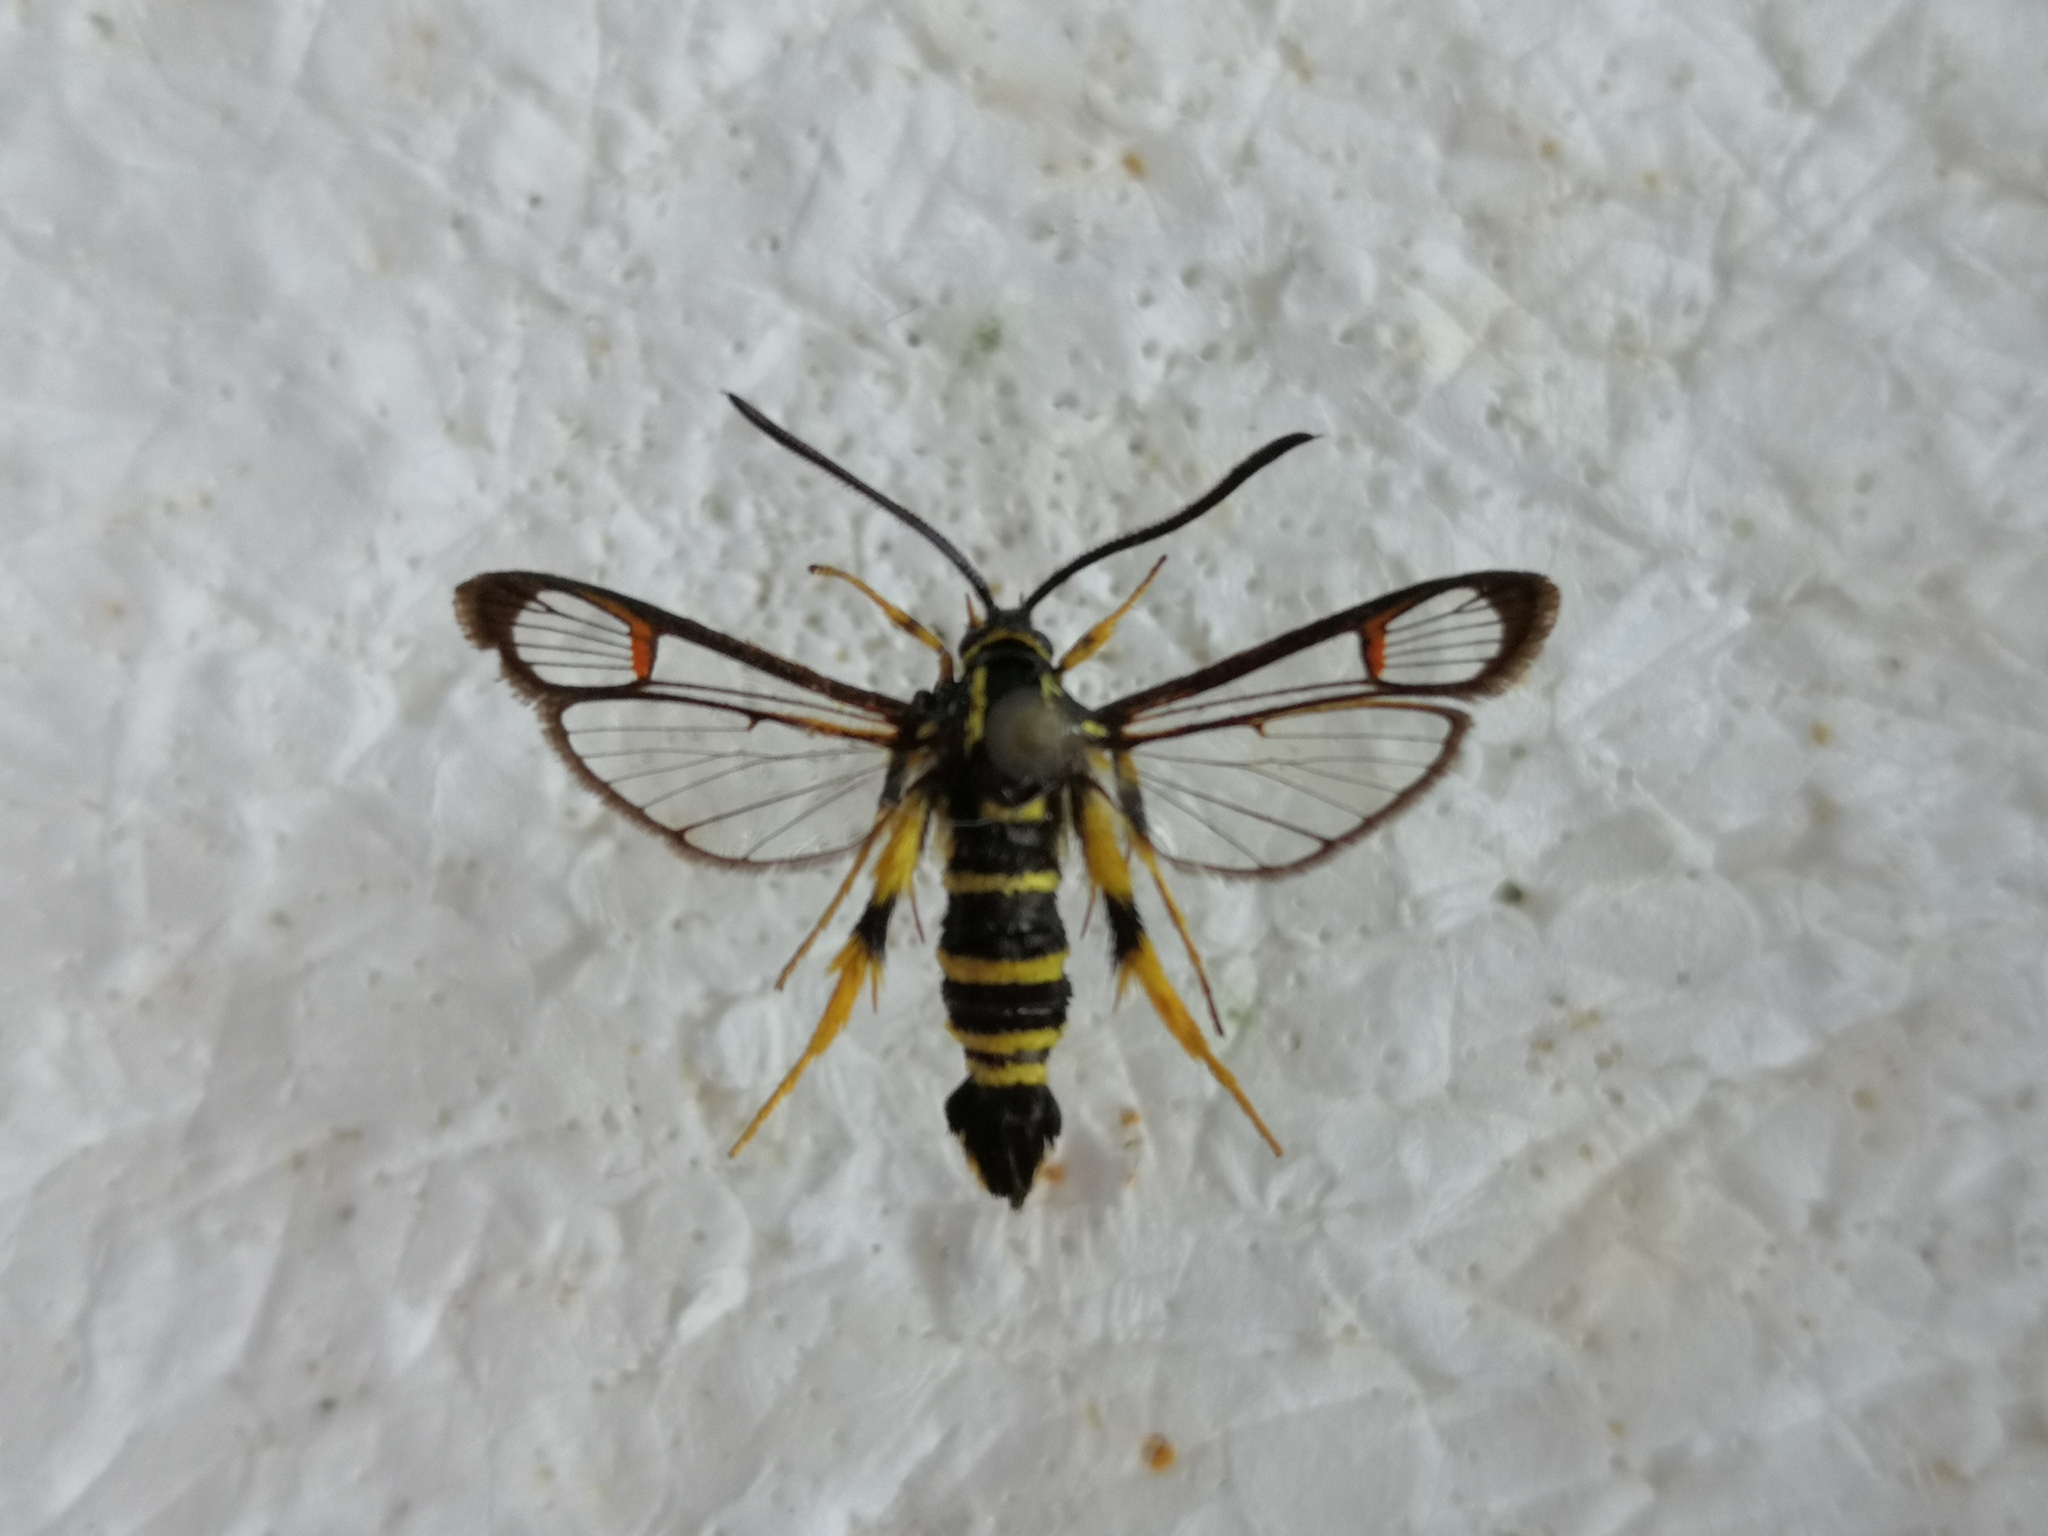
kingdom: Animalia
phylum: Arthropoda
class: Insecta
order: Lepidoptera
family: Sesiidae
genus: Synanthedon
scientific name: Synanthedon vespiformis
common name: Yellow-legged clearwing
